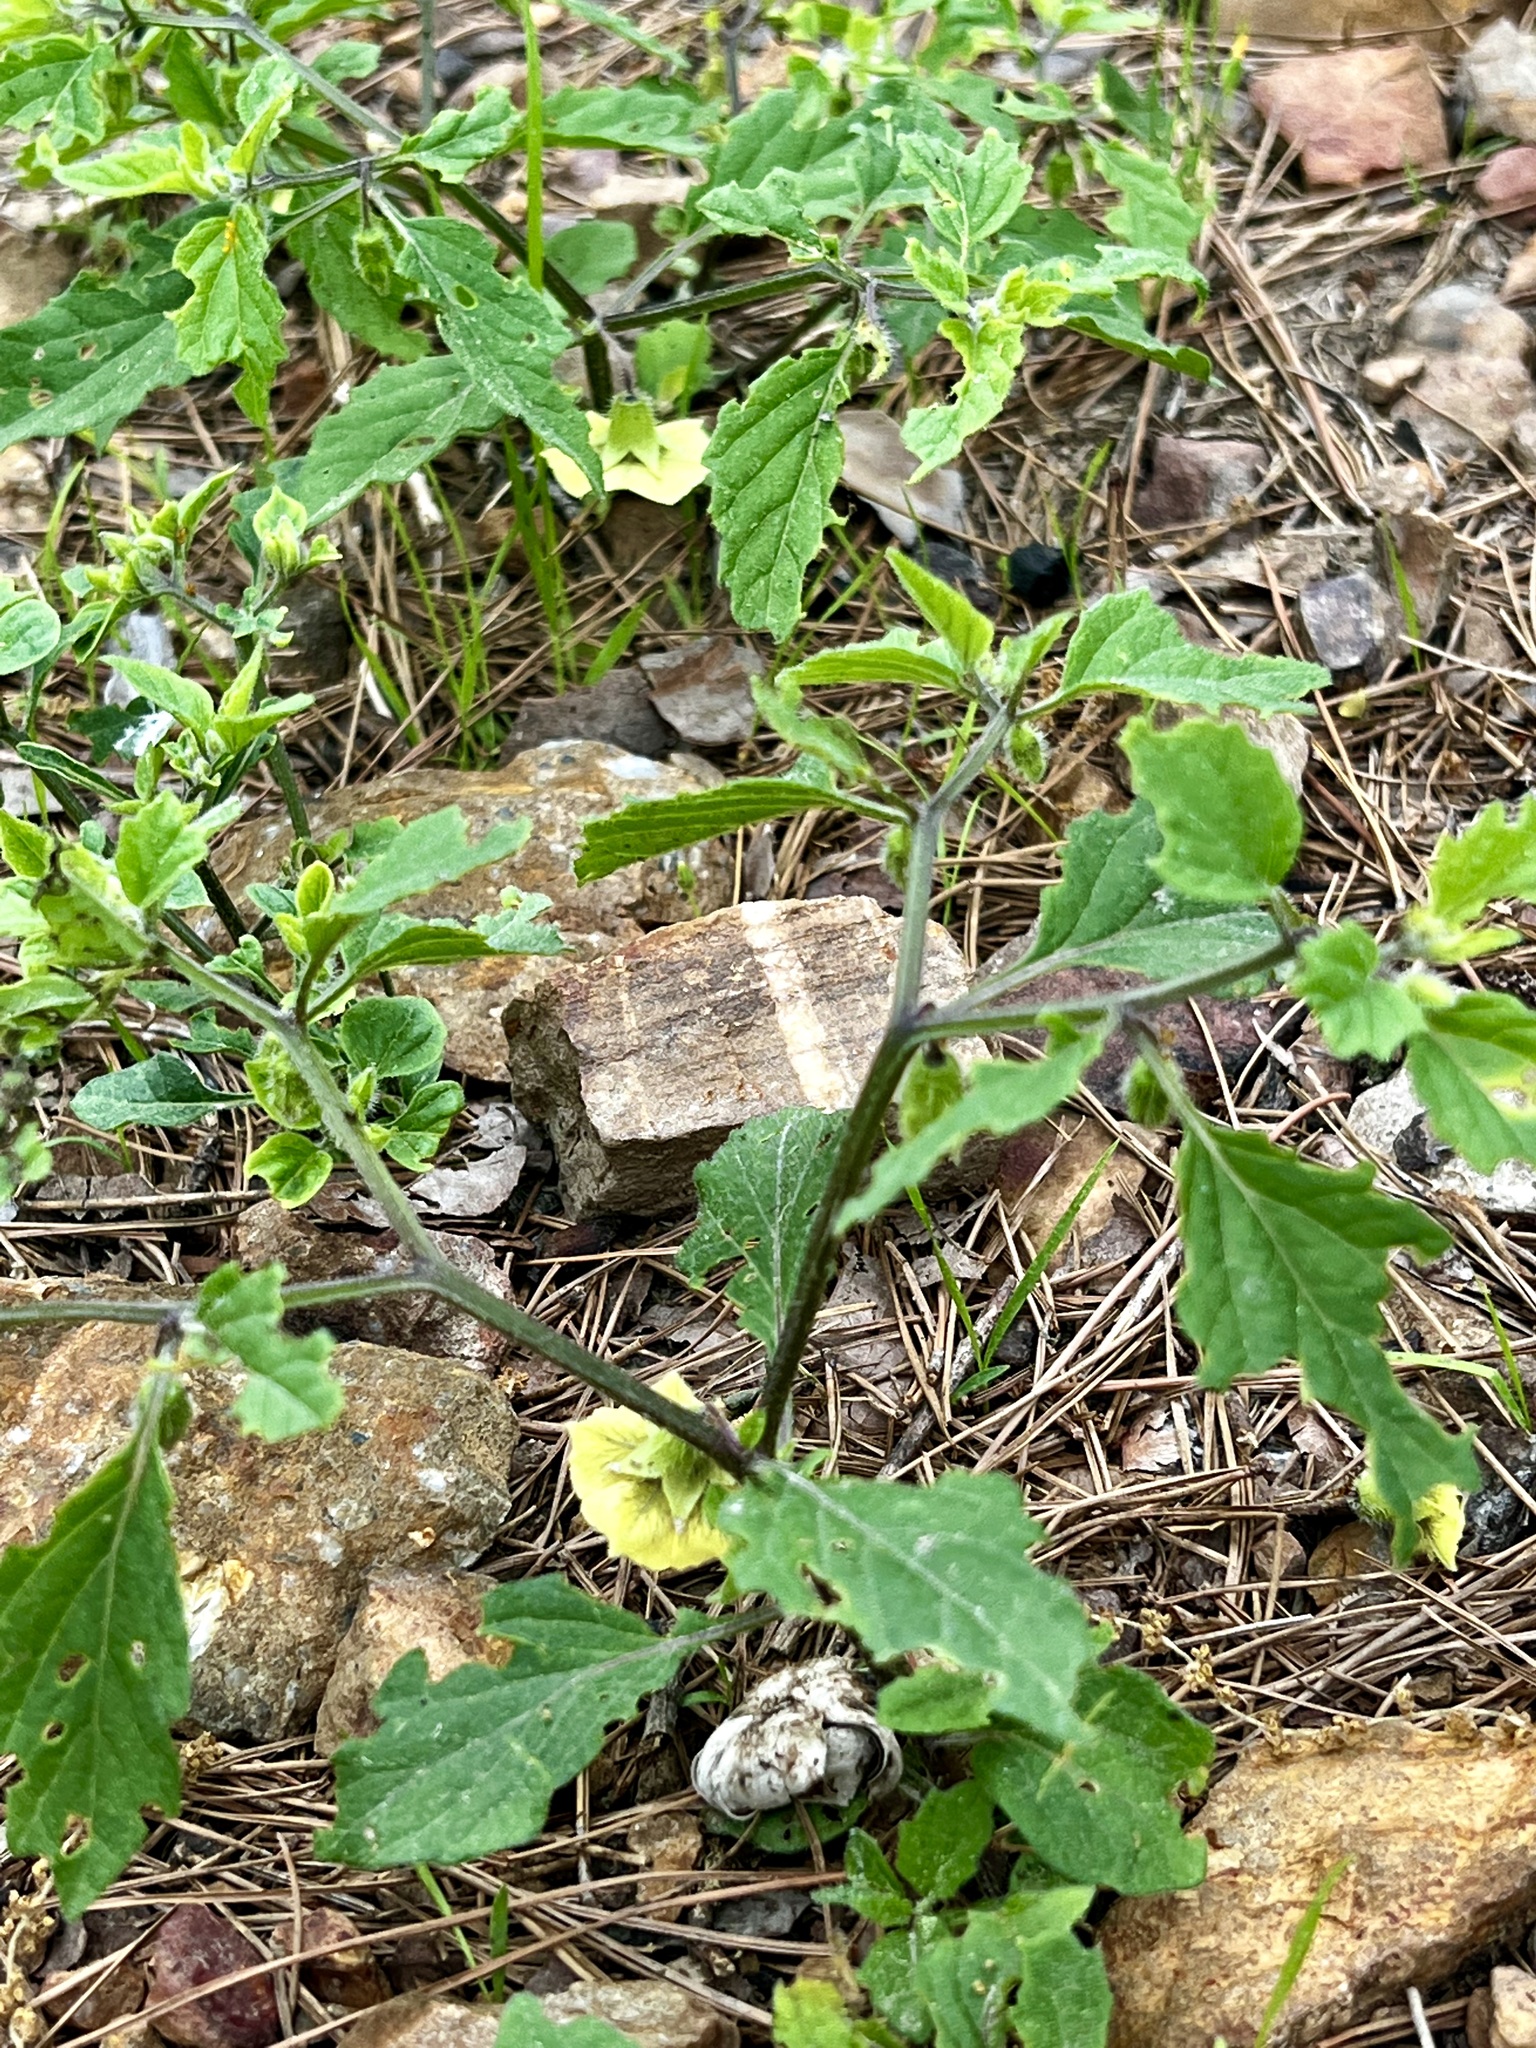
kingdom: Plantae
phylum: Tracheophyta
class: Magnoliopsida
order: Solanales
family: Solanaceae
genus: Physalis
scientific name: Physalis virginiana
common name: Virginia ground-cherry
